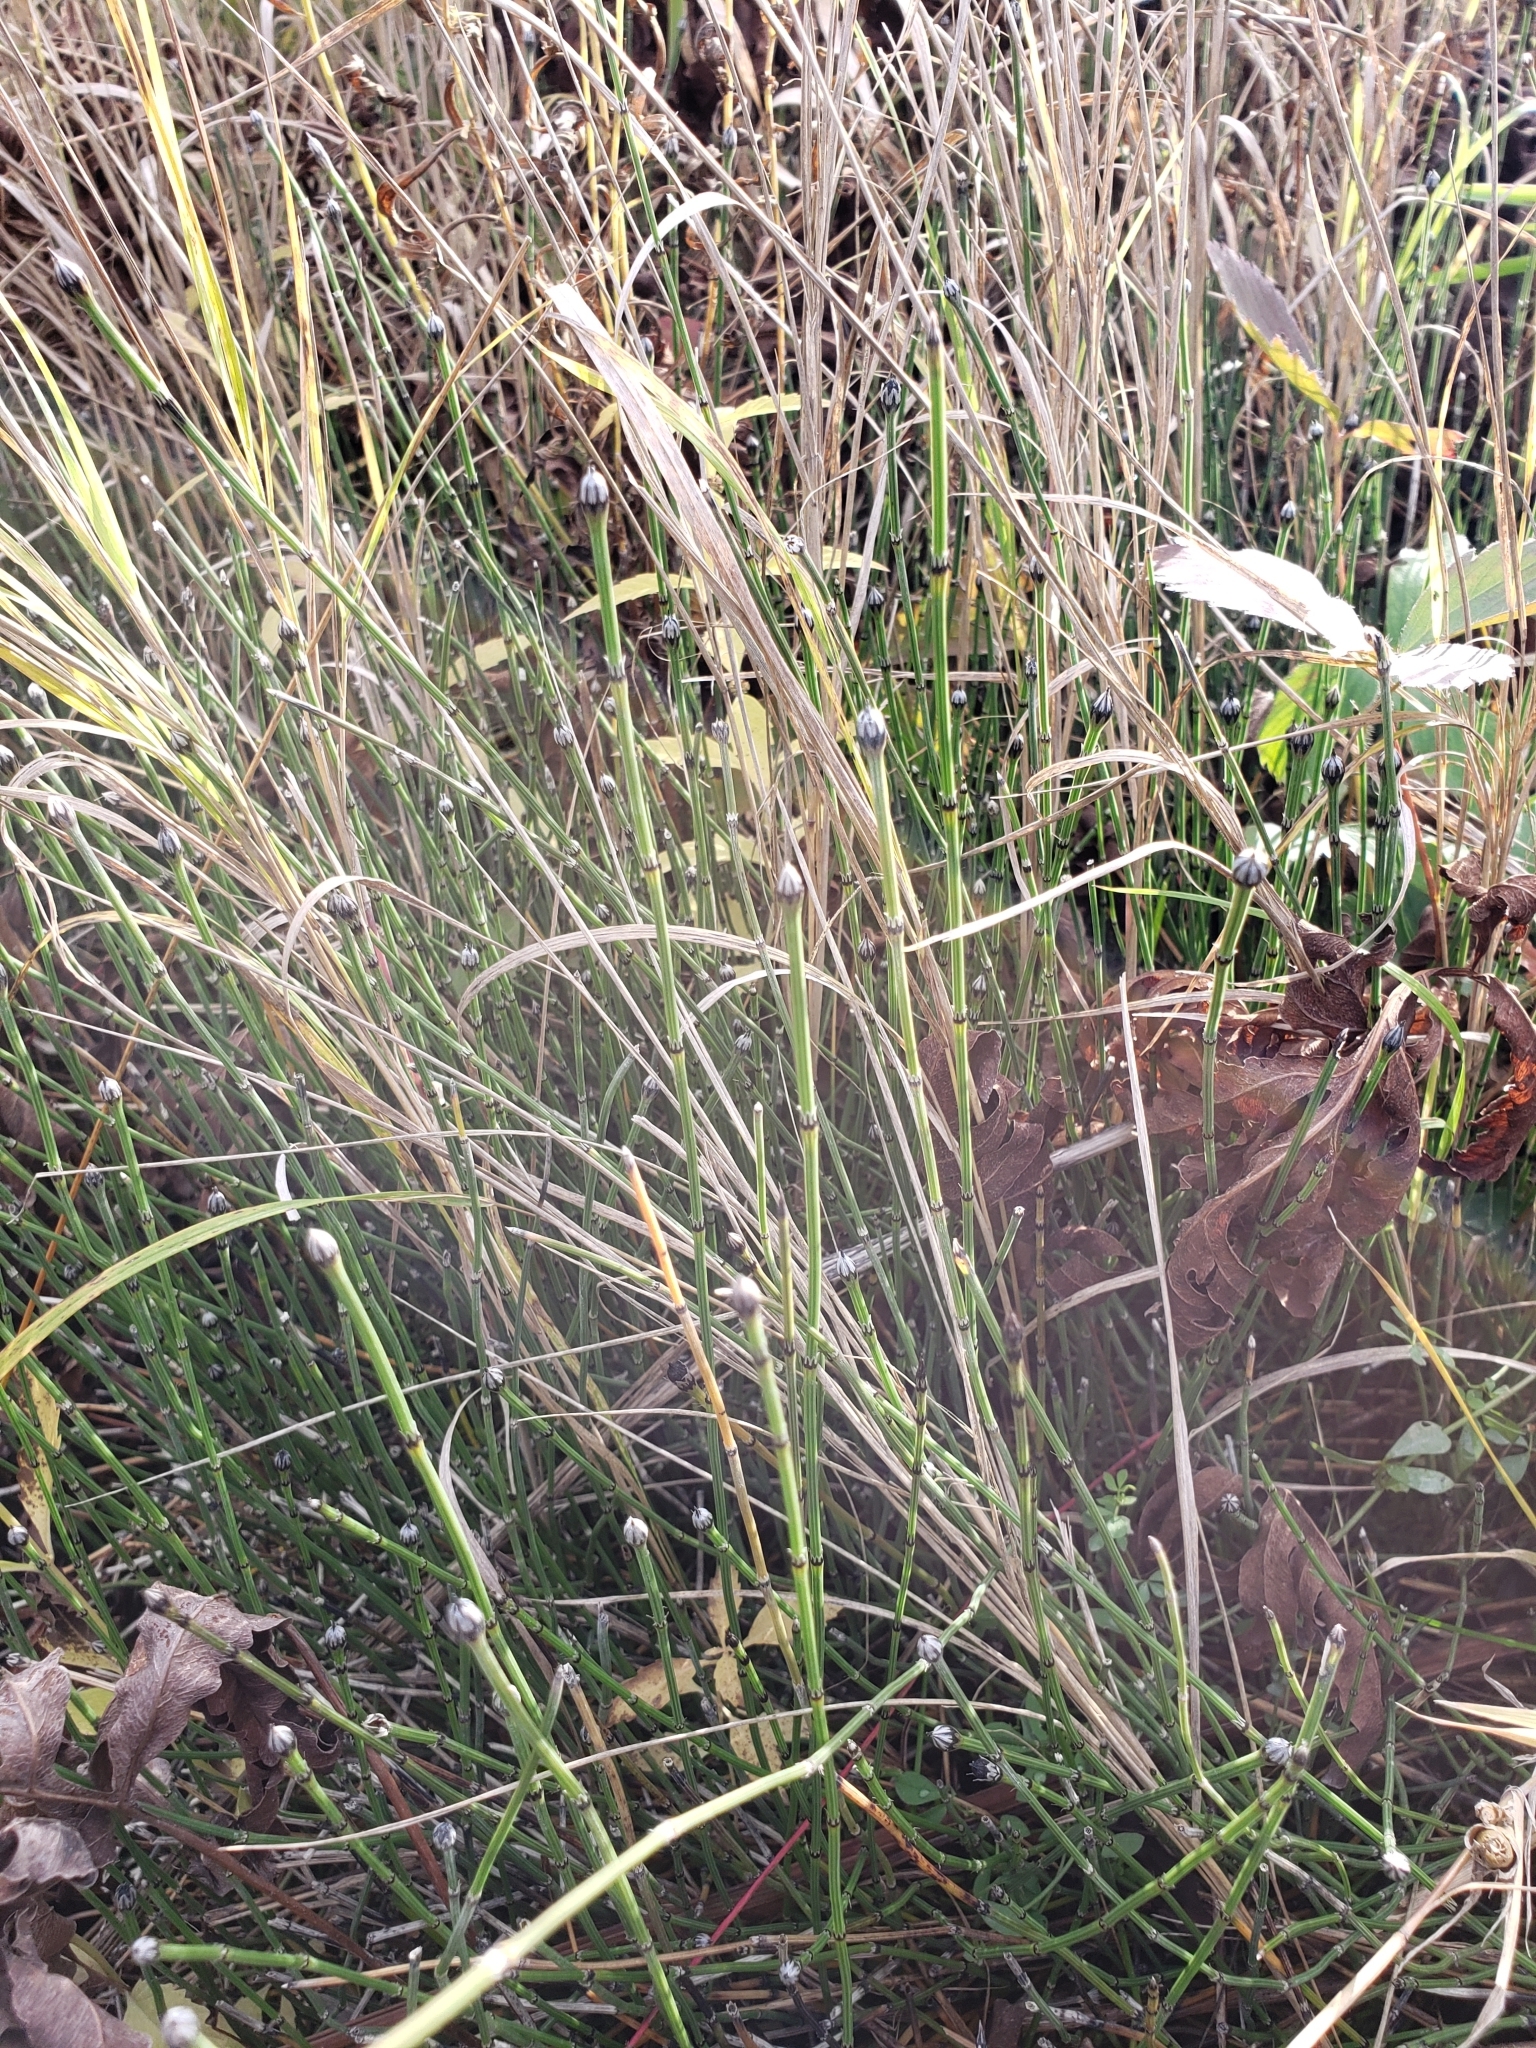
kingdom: Plantae
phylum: Tracheophyta
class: Polypodiopsida
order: Equisetales
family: Equisetaceae
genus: Equisetum
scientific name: Equisetum variegatum
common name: Variegated horsetail
